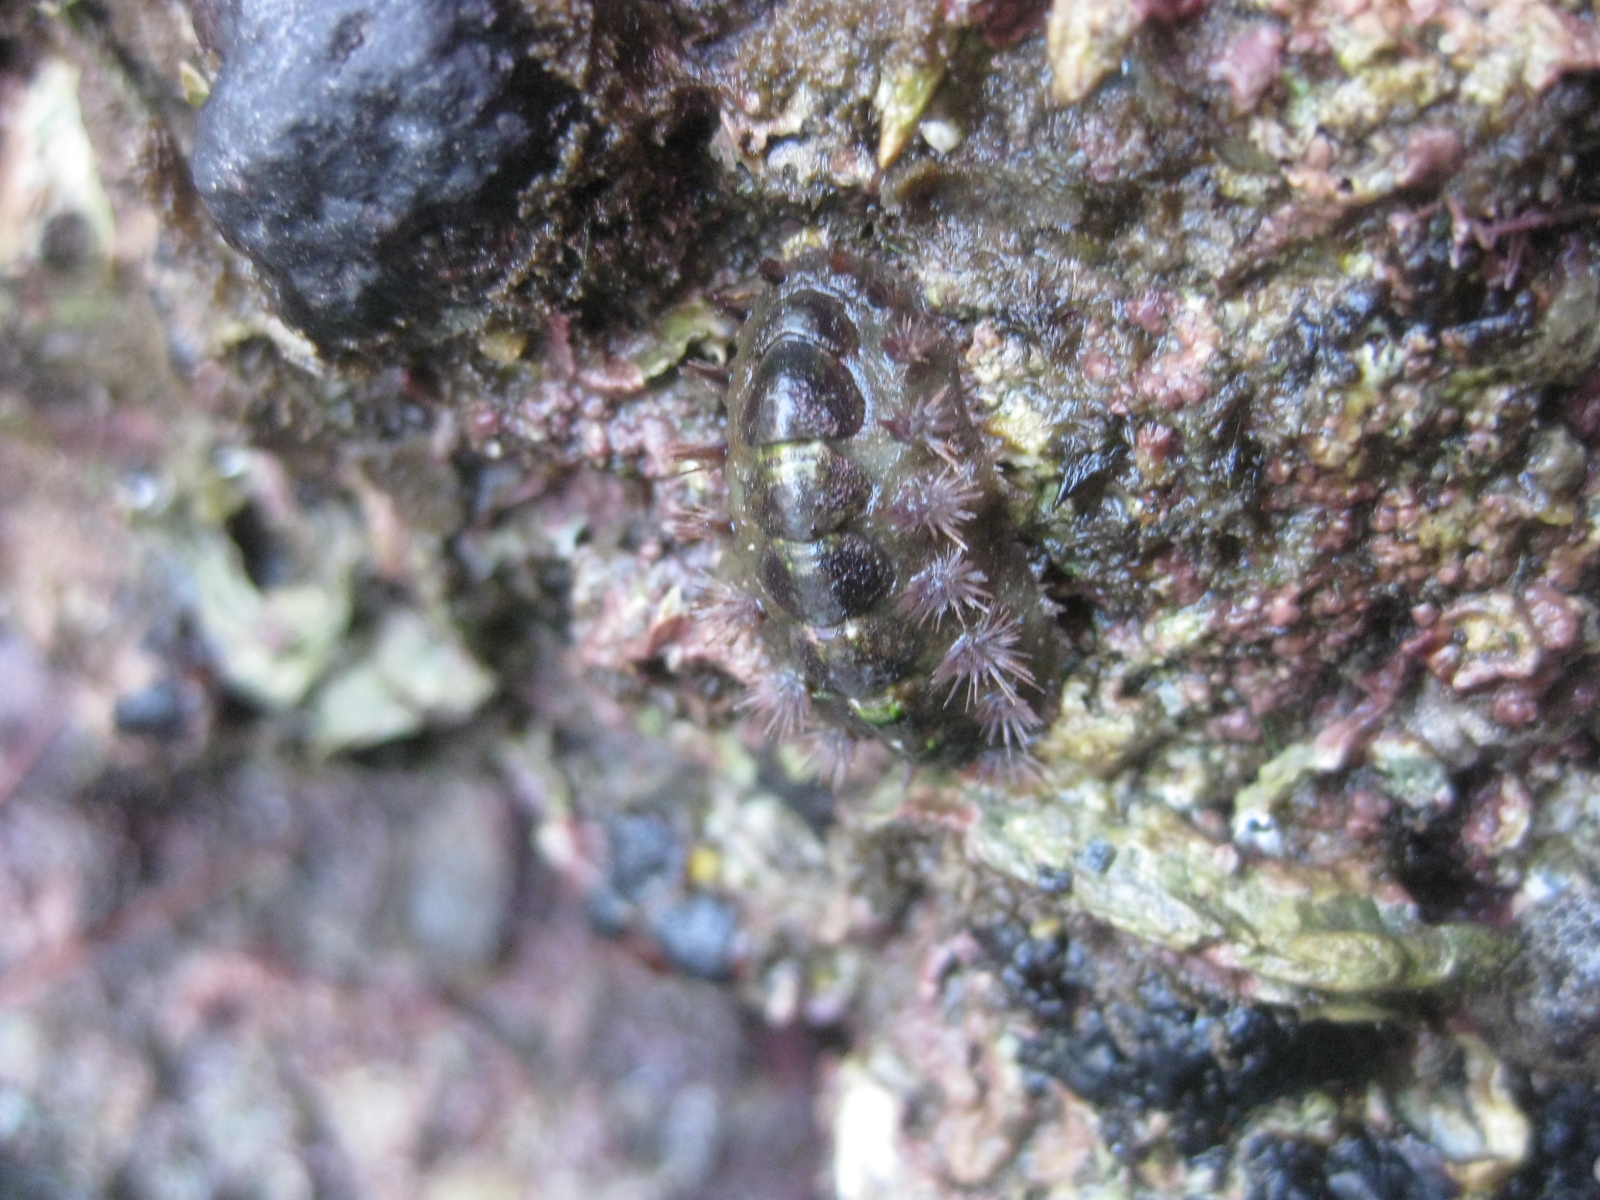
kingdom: Animalia
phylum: Mollusca
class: Polyplacophora
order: Chitonida
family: Acanthochitonidae
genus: Acanthochitona
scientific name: Acanthochitona zelandica
